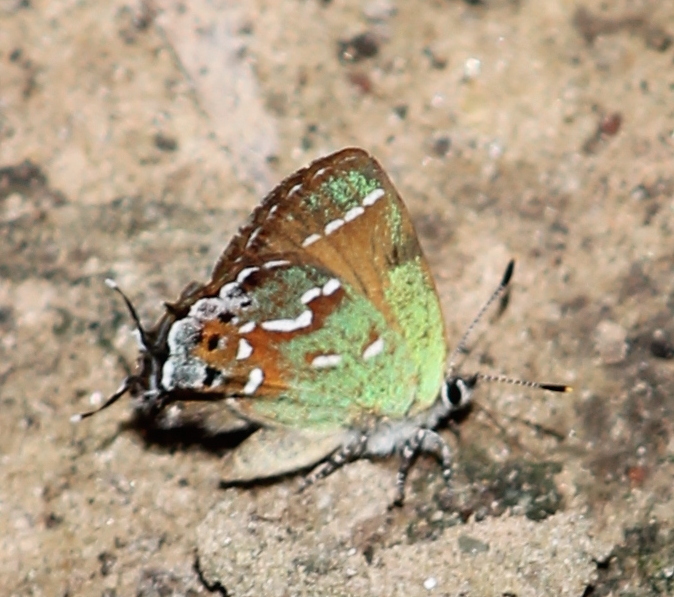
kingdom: Animalia
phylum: Arthropoda
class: Insecta
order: Lepidoptera
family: Lycaenidae
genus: Mitoura
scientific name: Mitoura gryneus
